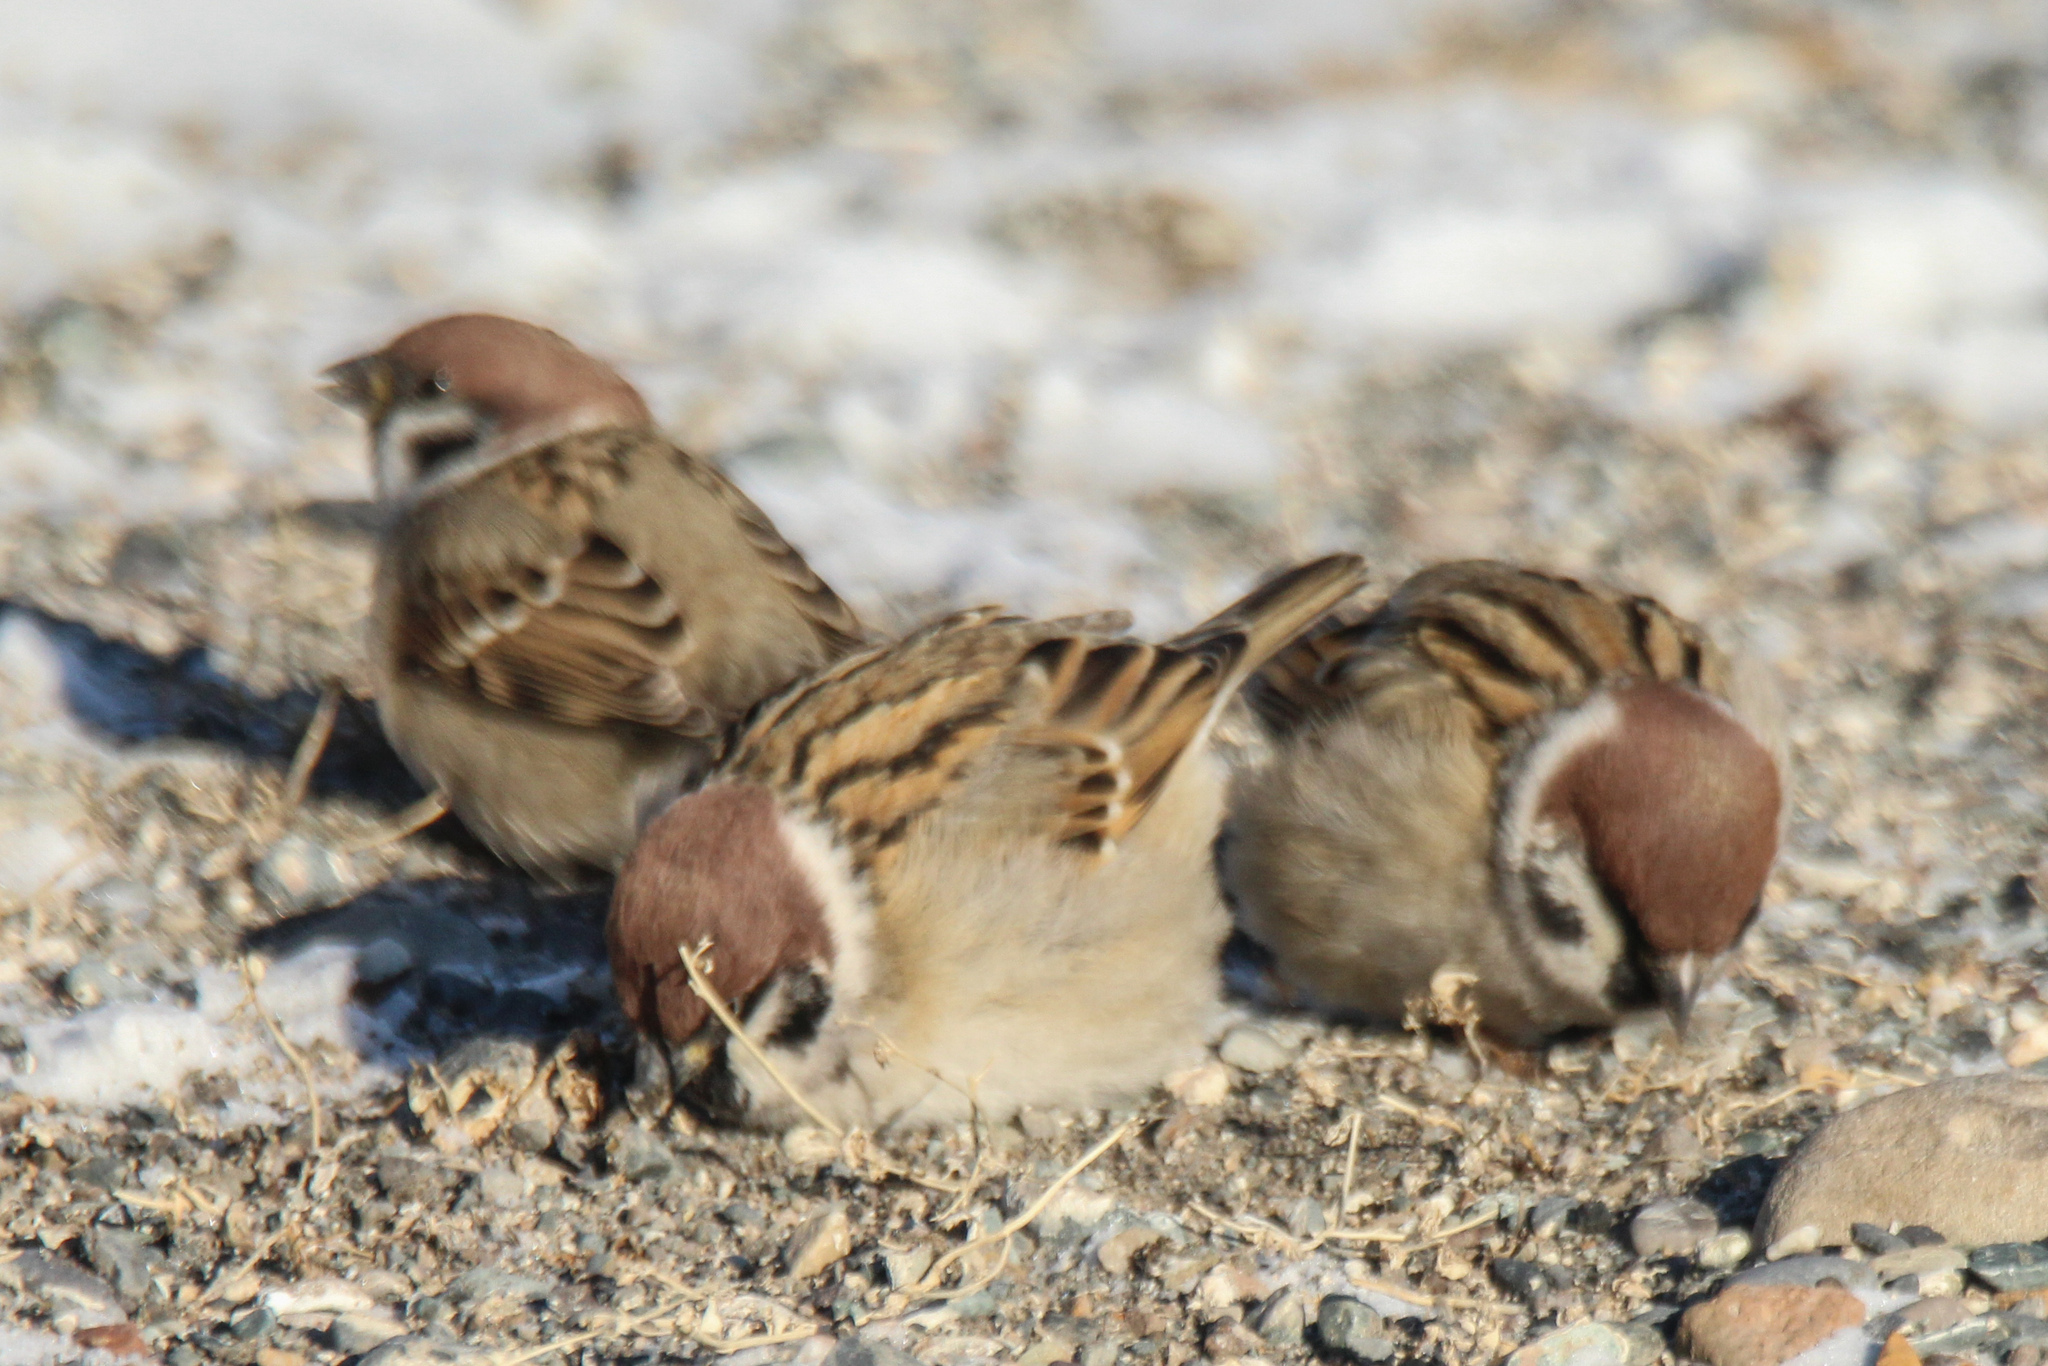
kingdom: Animalia
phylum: Chordata
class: Aves
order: Passeriformes
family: Passeridae
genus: Passer
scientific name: Passer montanus
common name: Eurasian tree sparrow
